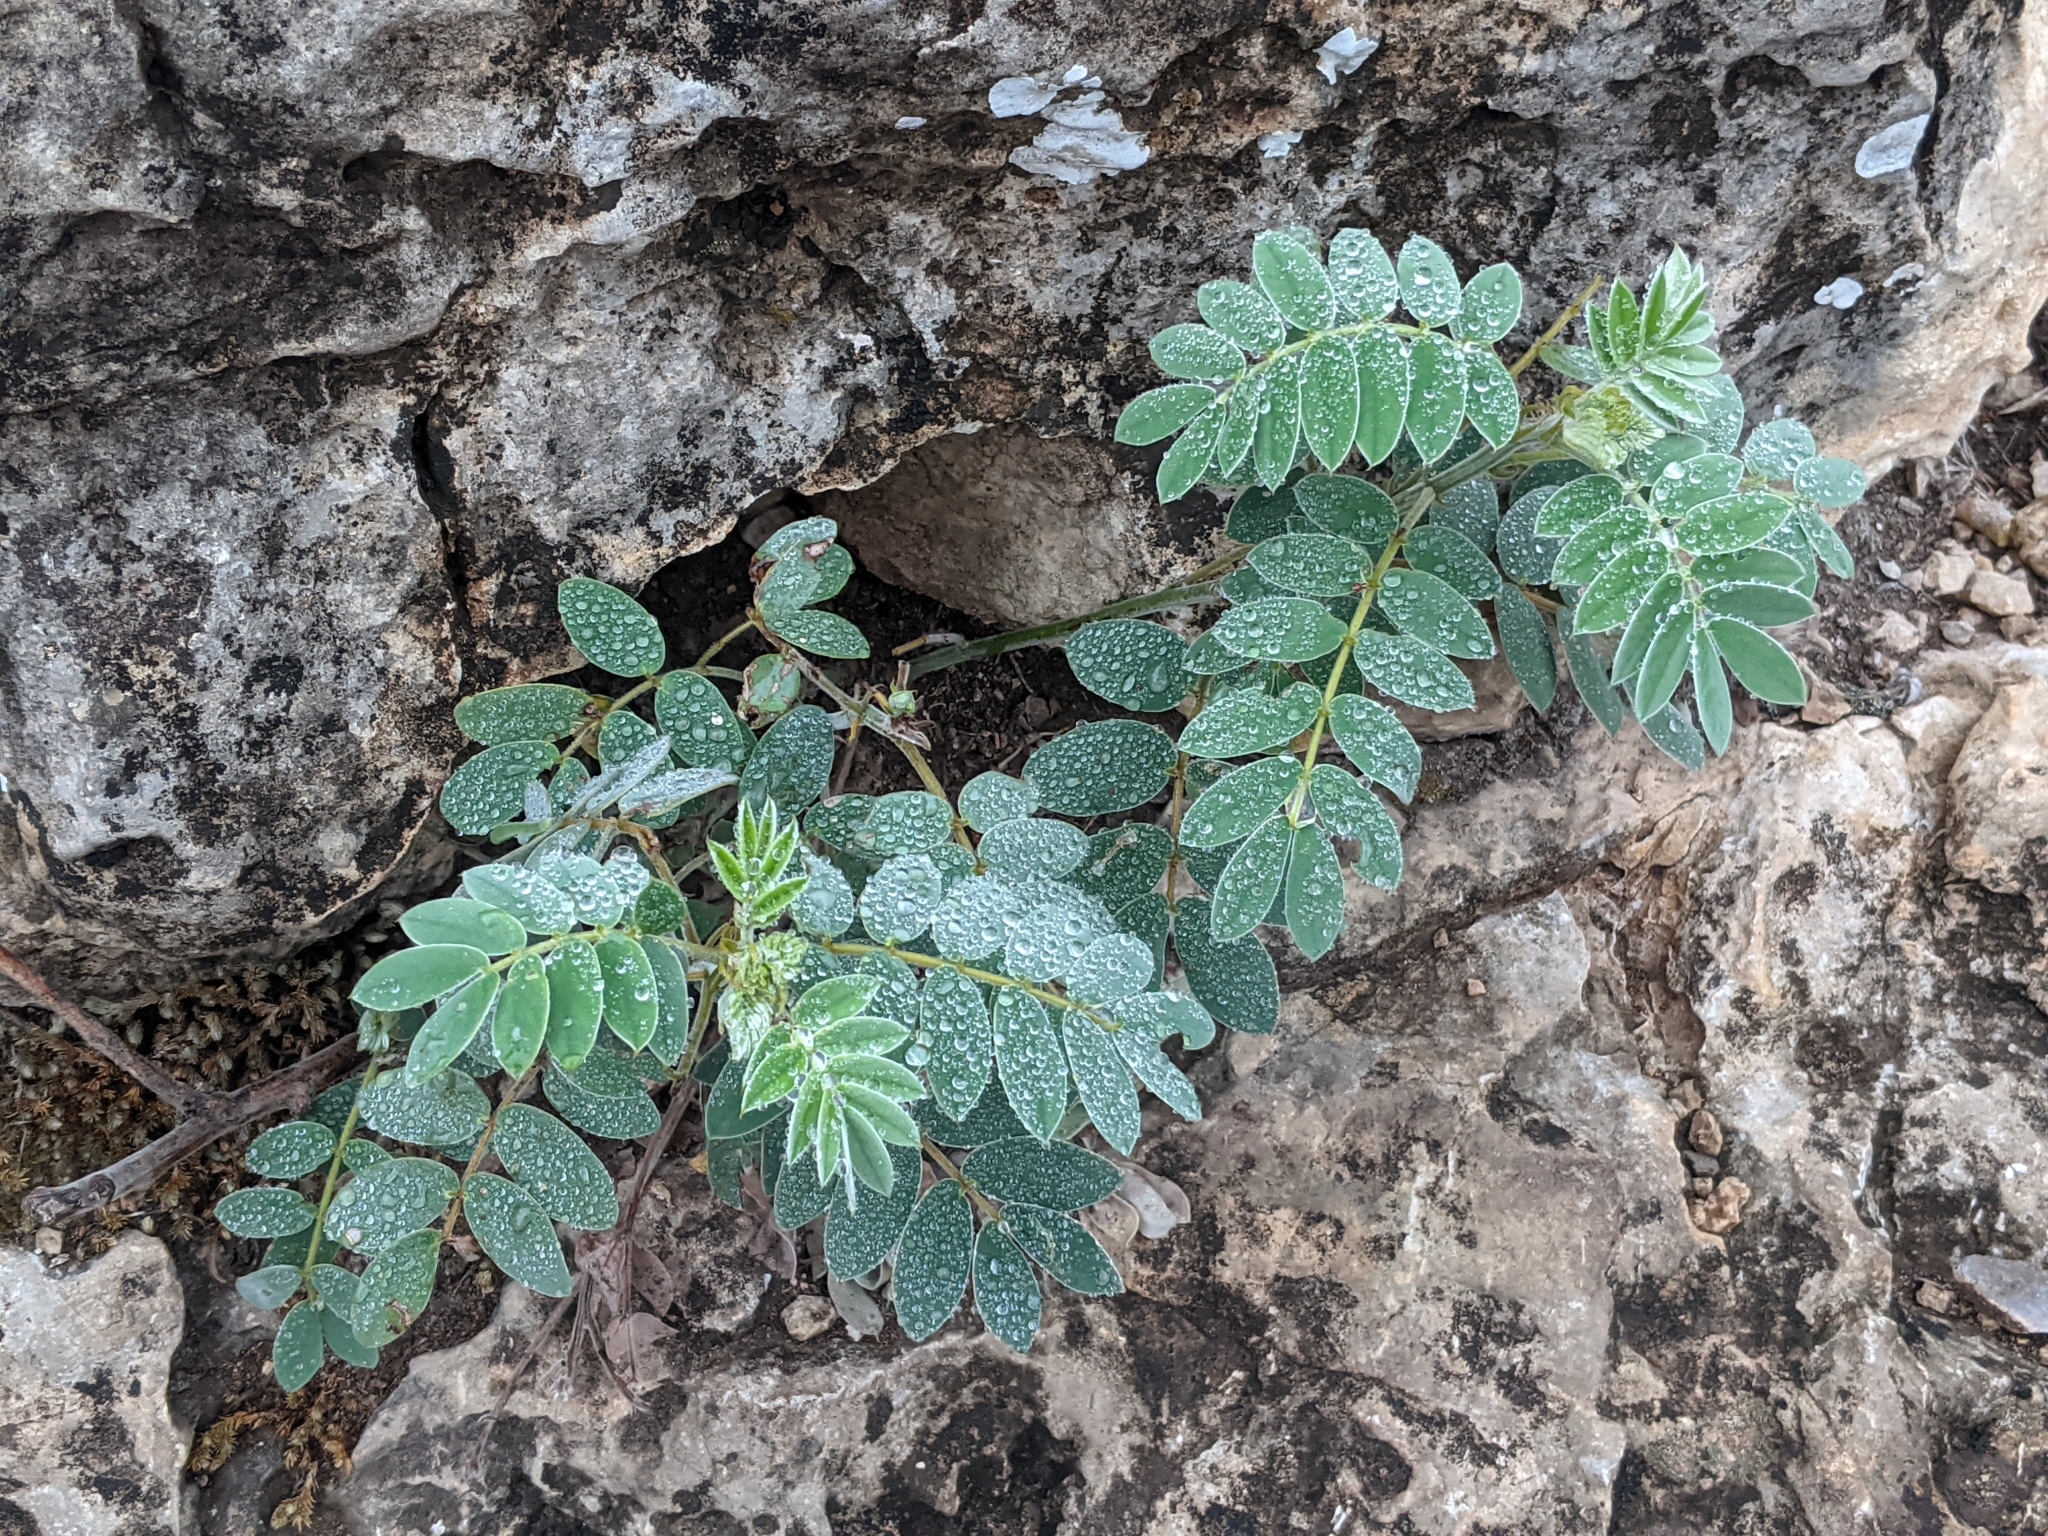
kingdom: Plantae
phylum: Tracheophyta
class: Magnoliopsida
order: Fabales
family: Fabaceae
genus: Senna
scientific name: Senna lindheimeriana
